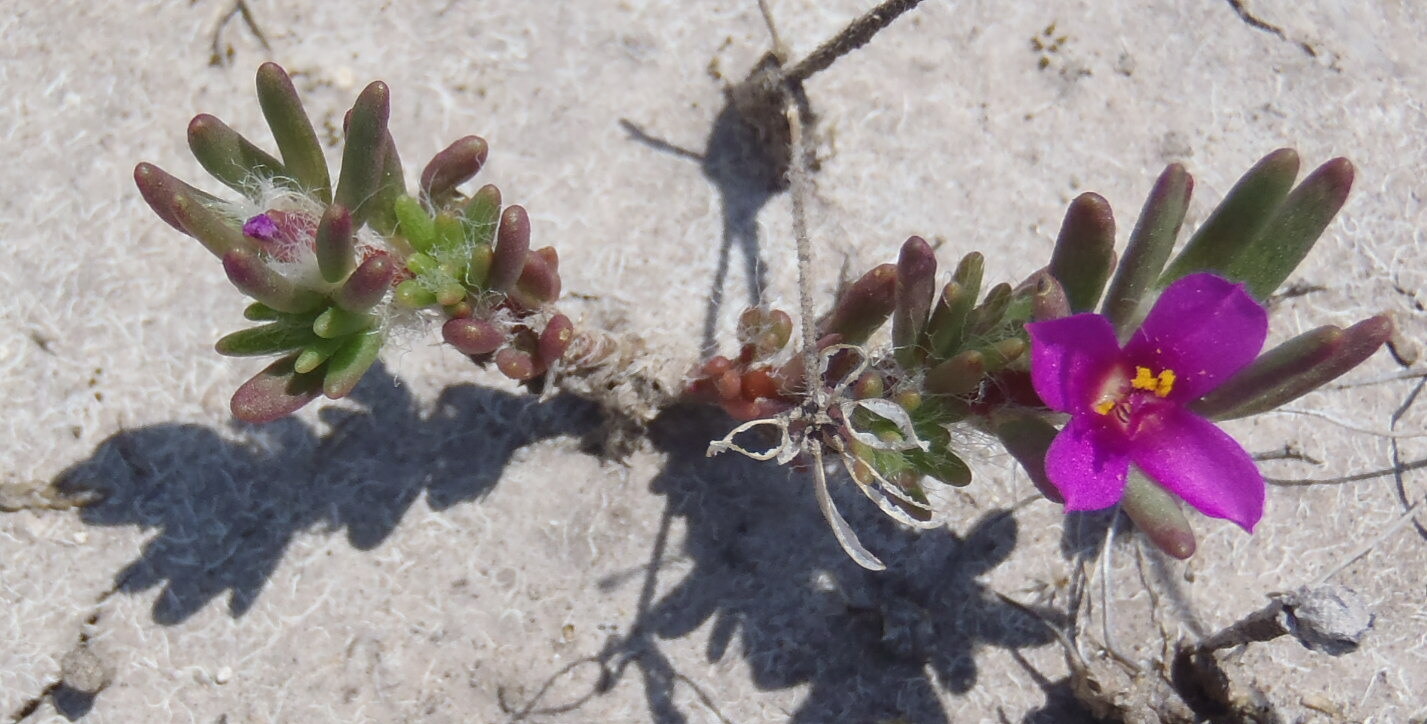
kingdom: Plantae
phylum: Tracheophyta
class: Magnoliopsida
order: Caryophyllales
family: Portulacaceae
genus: Portulaca
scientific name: Portulaca pilosa
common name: Kiss me quick
